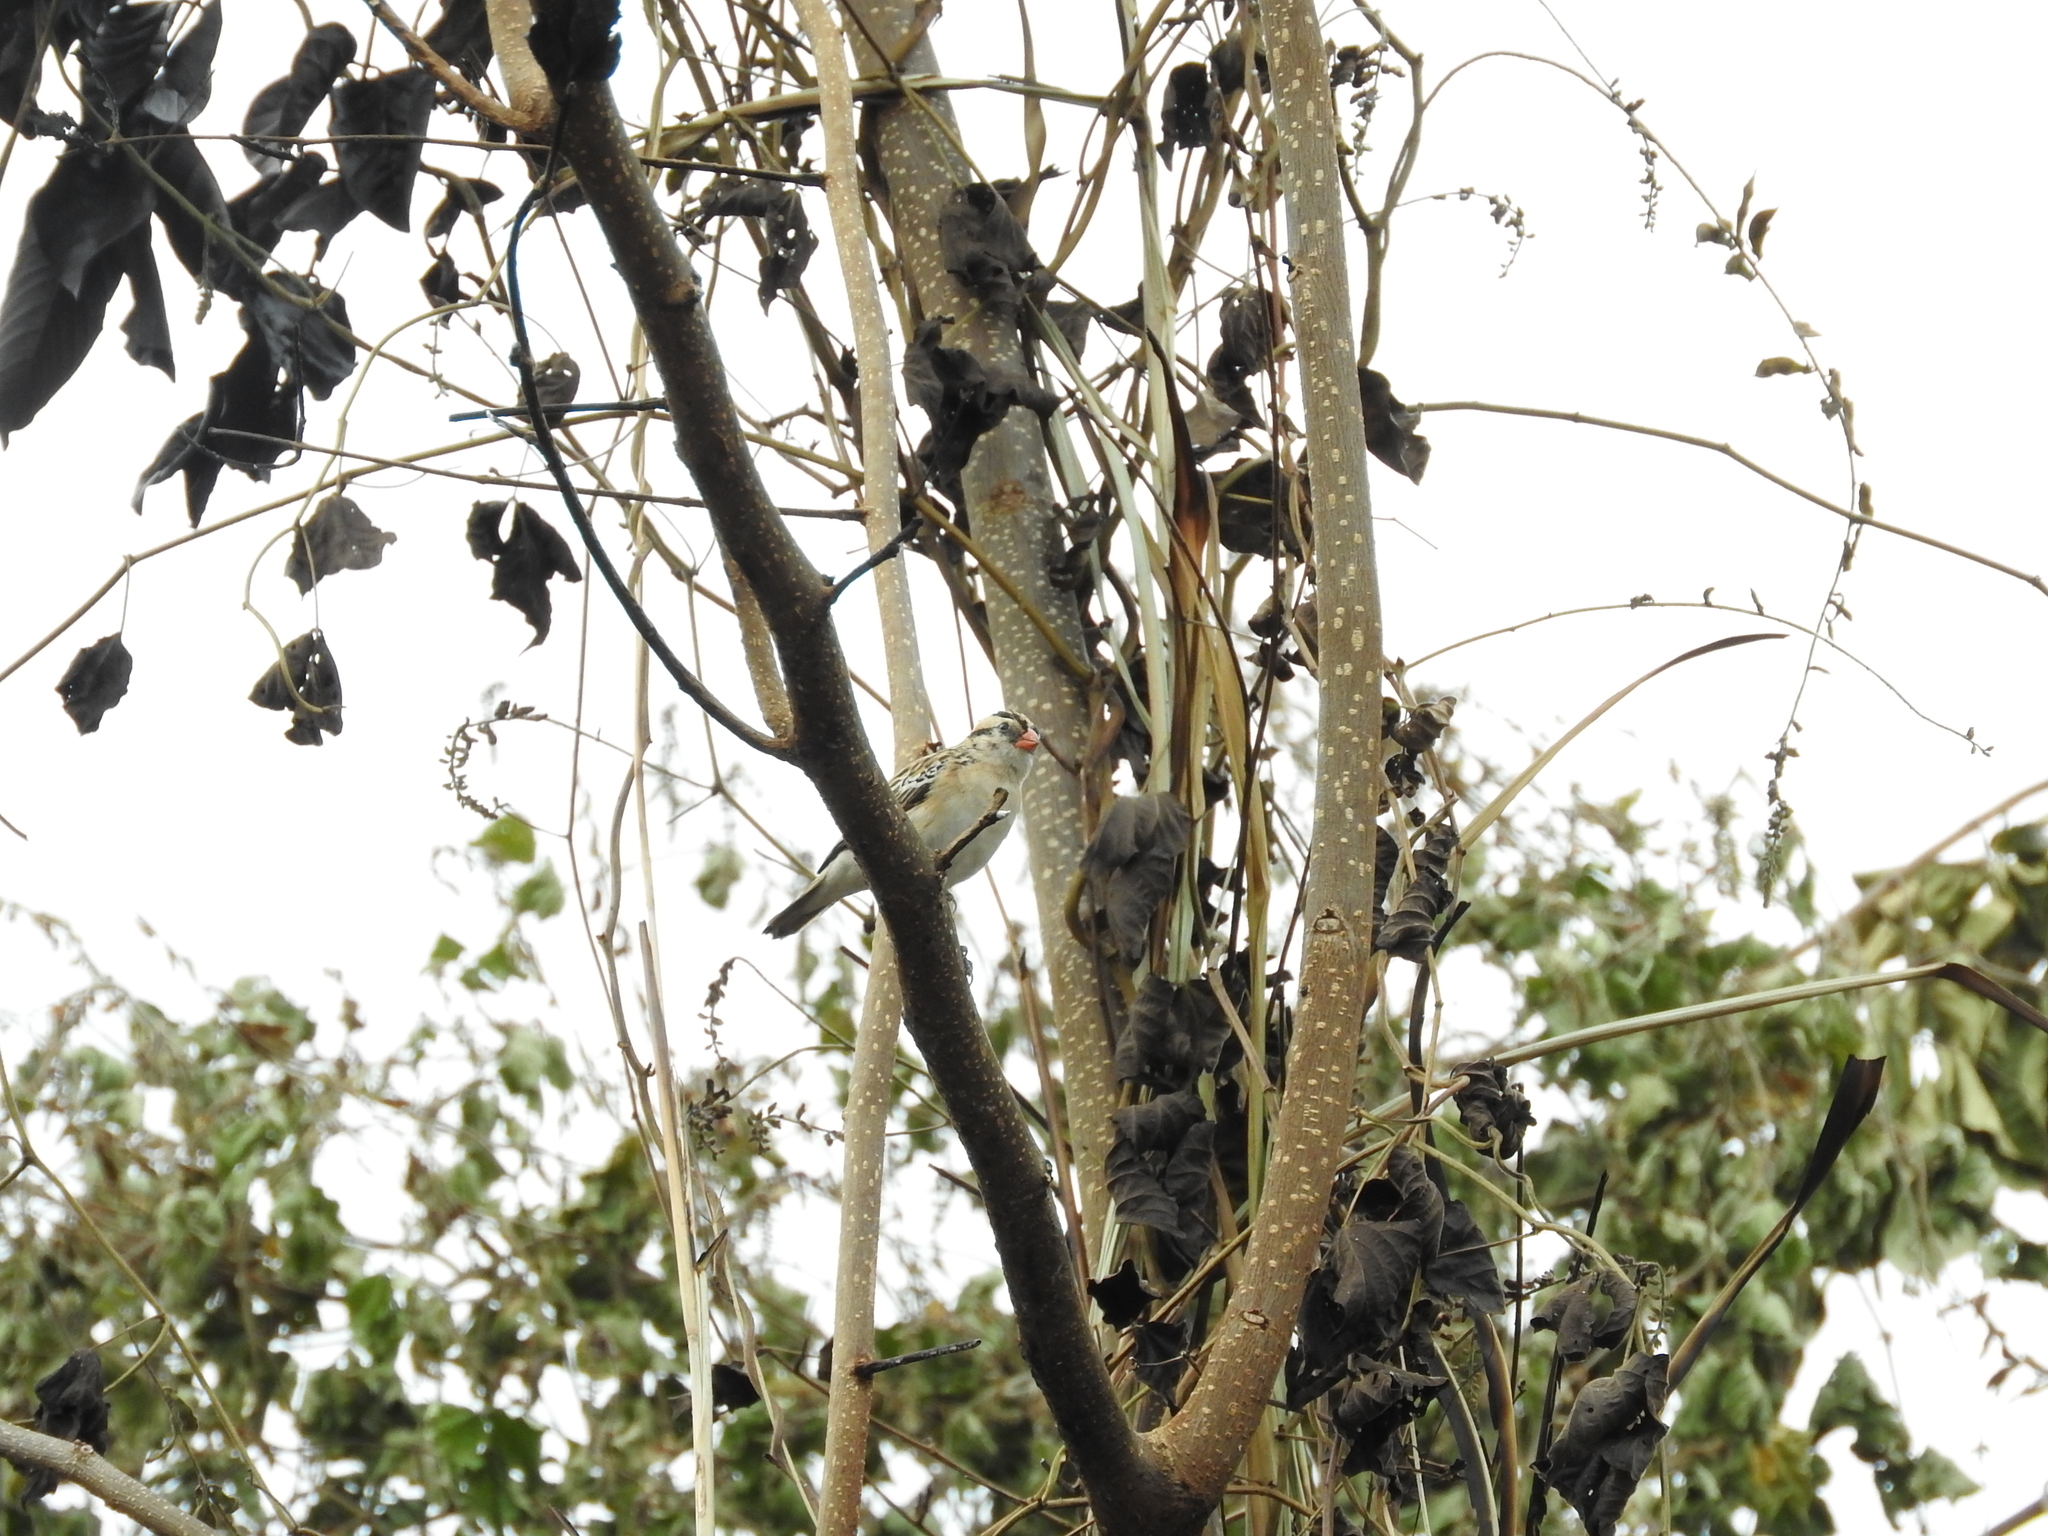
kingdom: Animalia
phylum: Chordata
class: Aves
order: Passeriformes
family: Viduidae
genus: Vidua
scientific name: Vidua macroura
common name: Pin-tailed whydah
